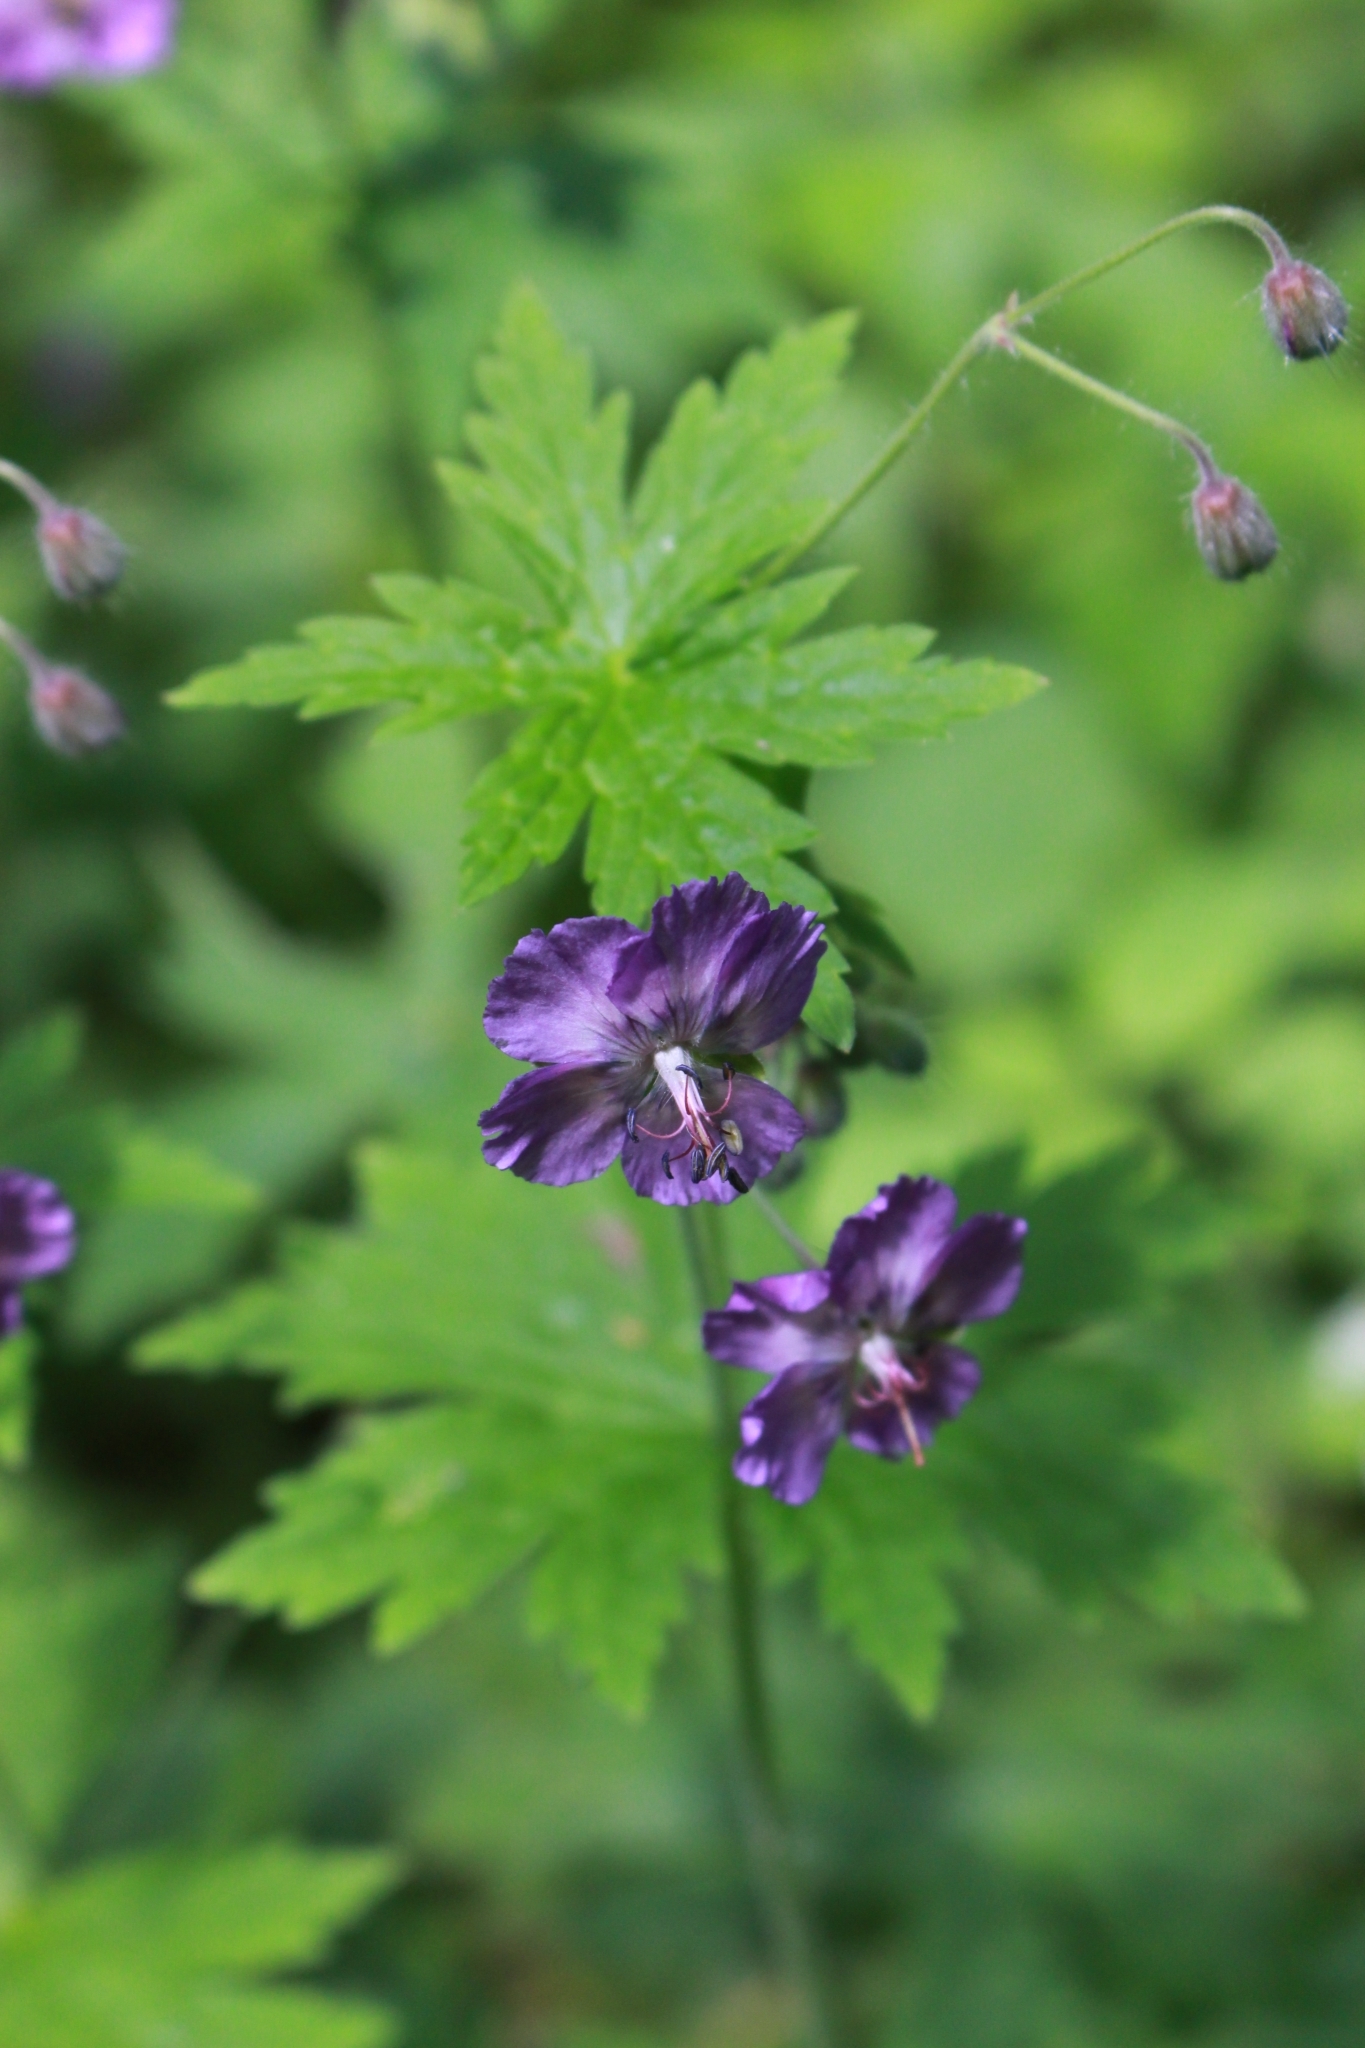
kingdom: Plantae
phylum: Tracheophyta
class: Magnoliopsida
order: Geraniales
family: Geraniaceae
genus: Geranium
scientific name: Geranium phaeum
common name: Dusky crane's-bill
